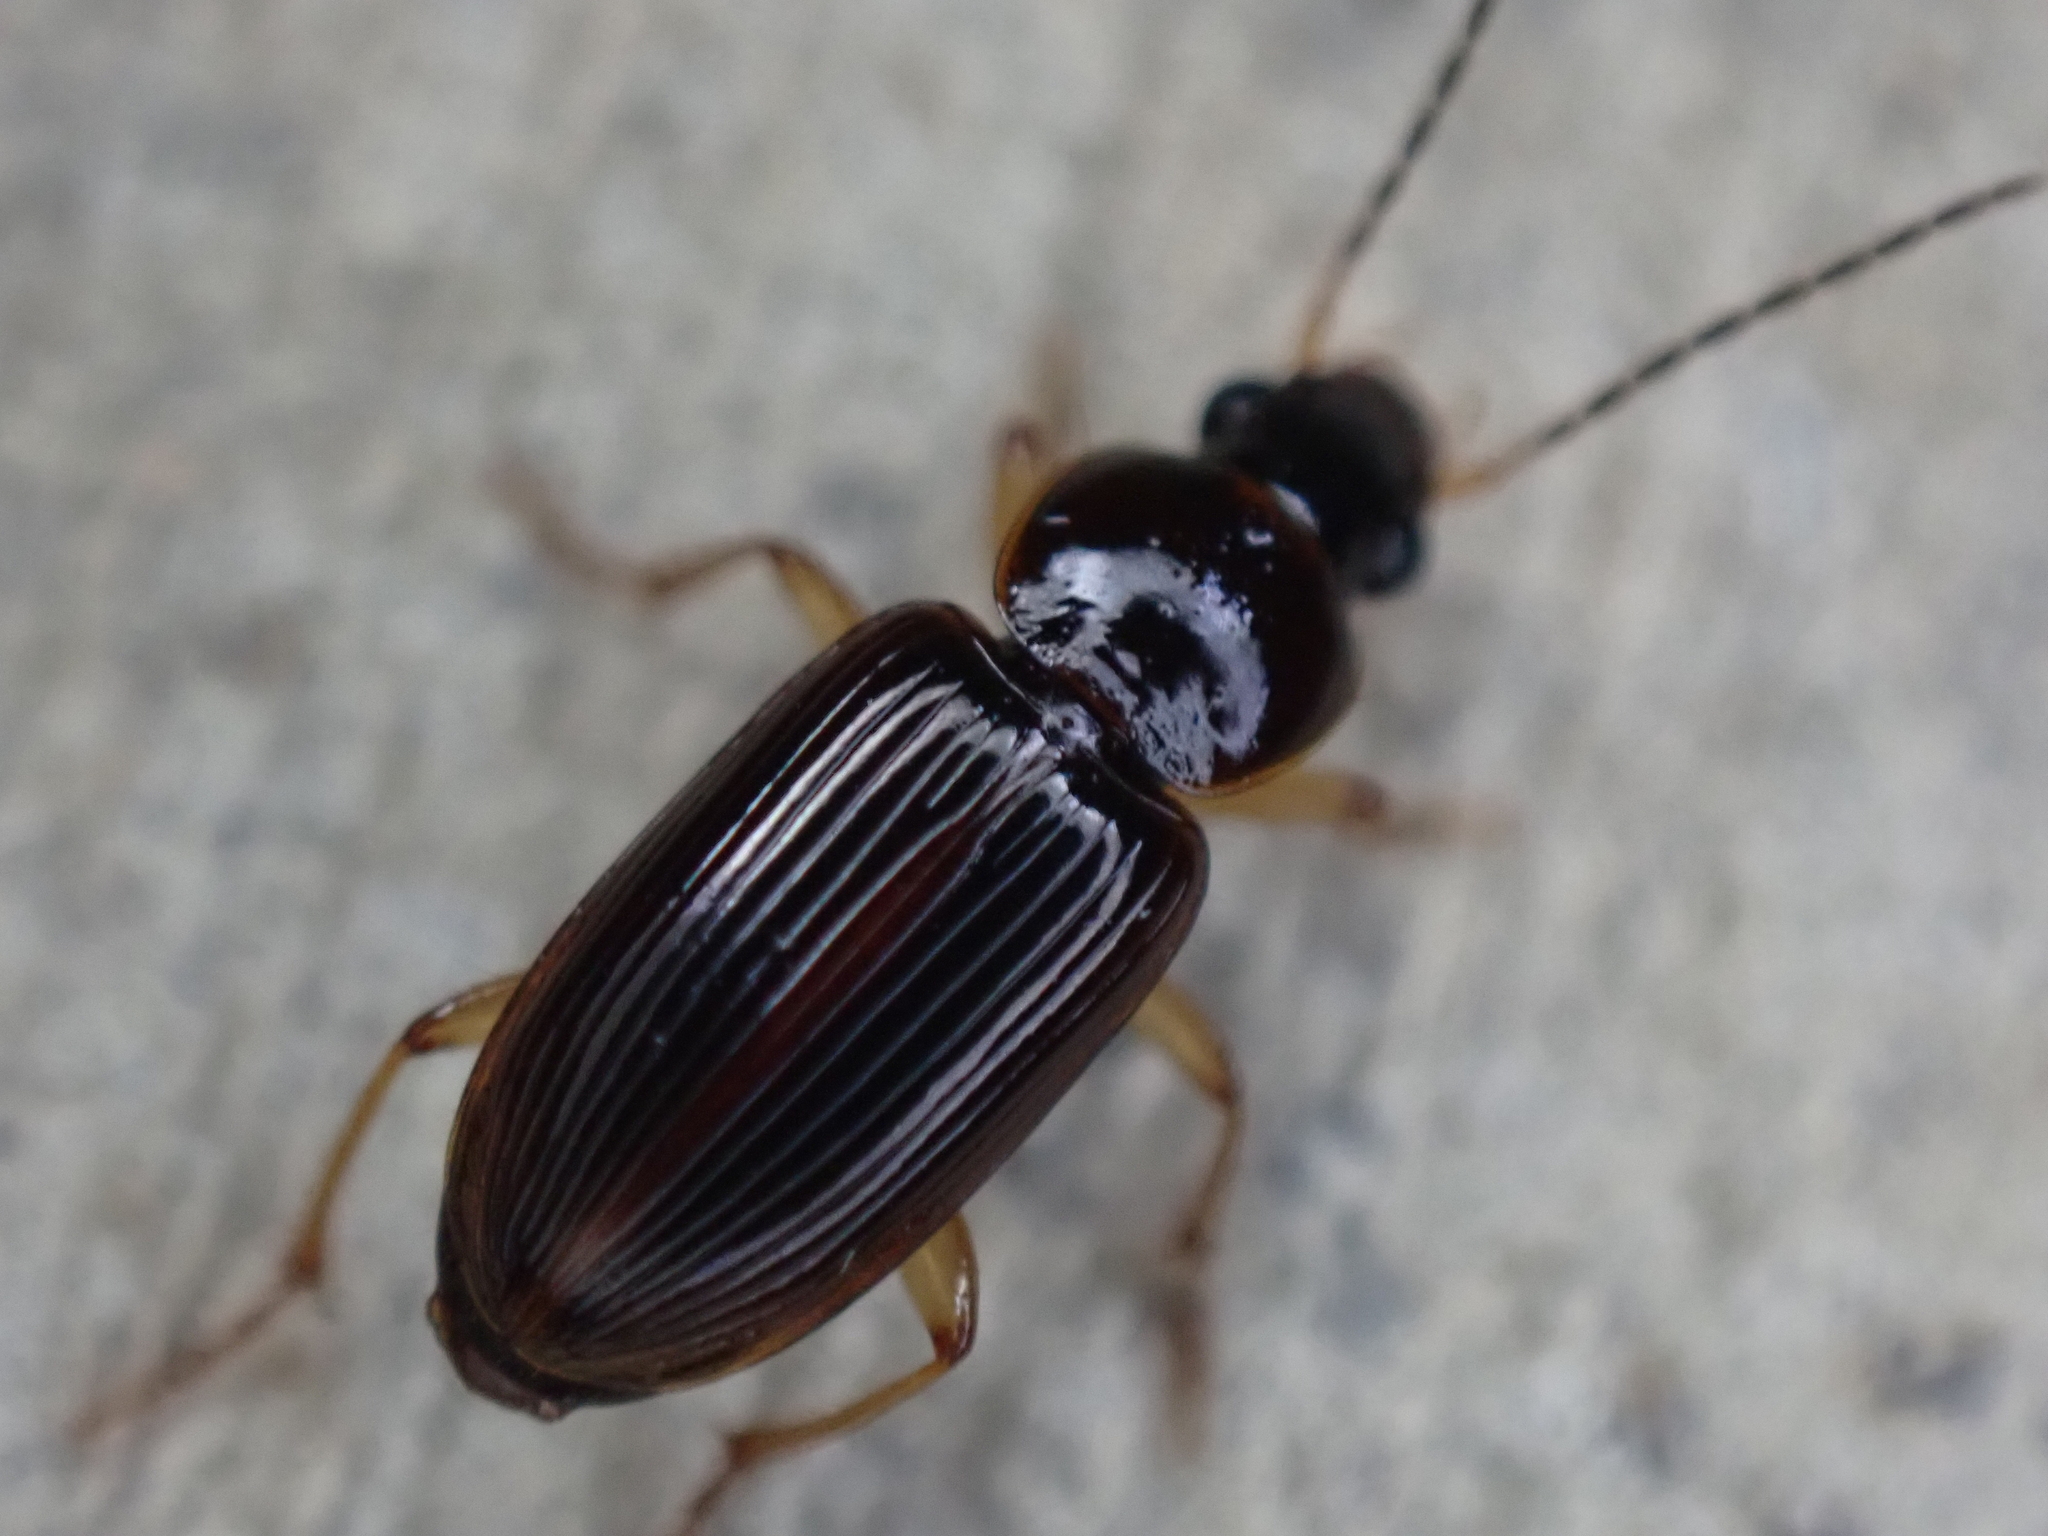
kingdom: Animalia
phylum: Arthropoda
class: Insecta
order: Coleoptera
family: Carabidae
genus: Stenolophus
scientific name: Stenolophus ochropezus
